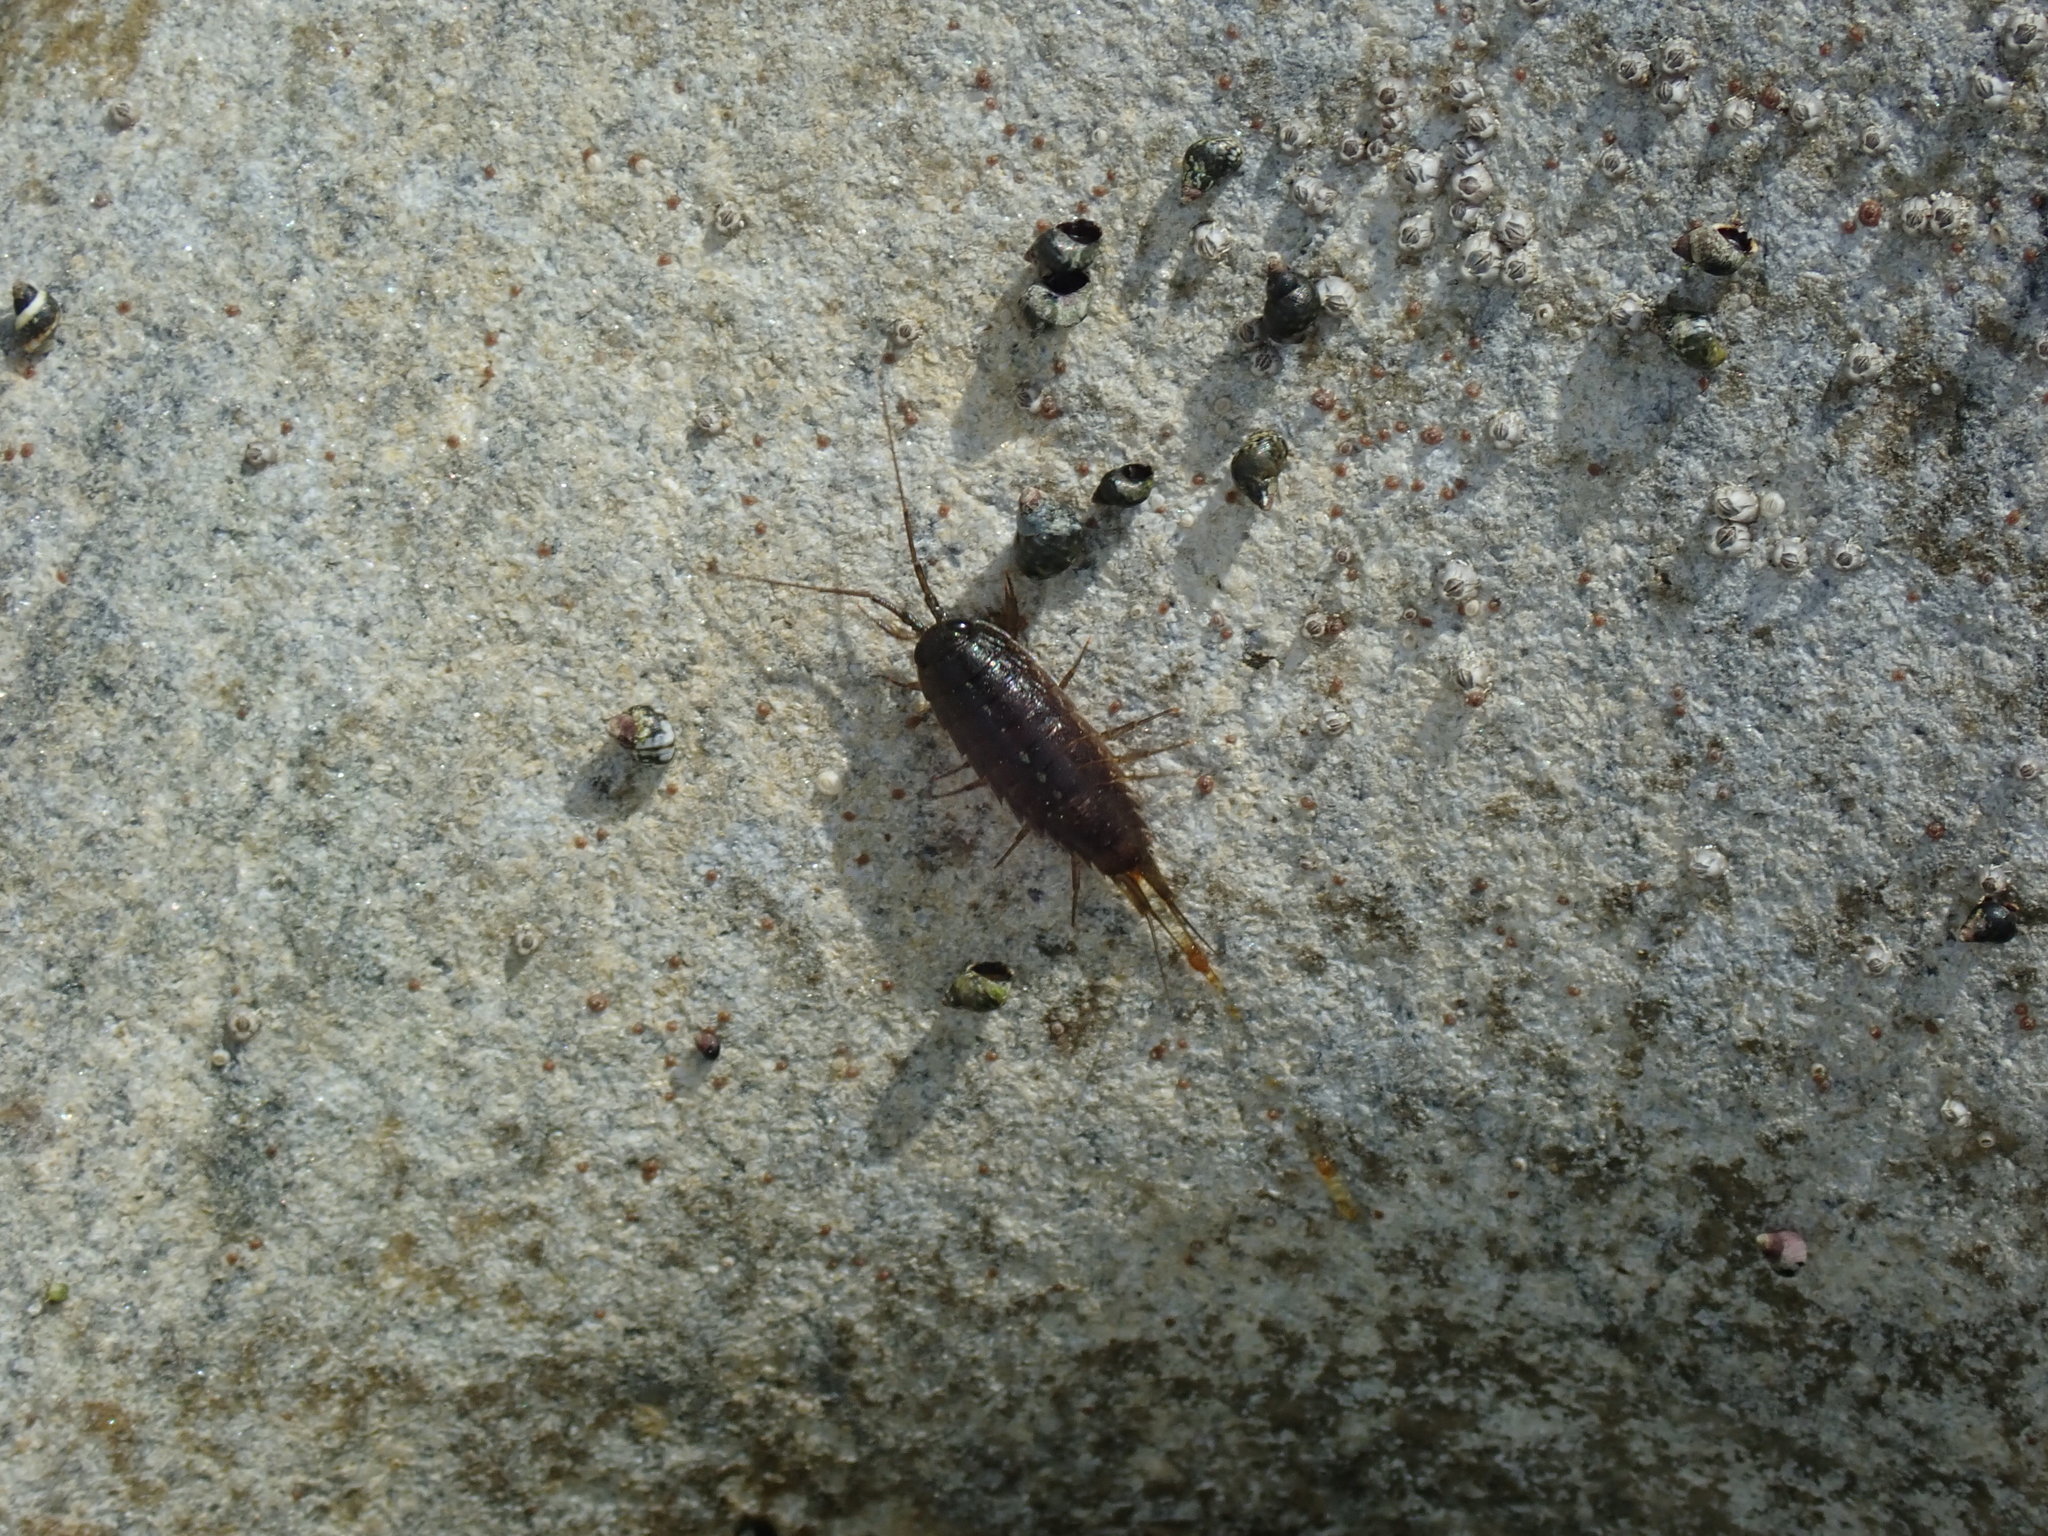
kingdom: Animalia
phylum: Arthropoda
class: Malacostraca
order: Isopoda
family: Ligiidae
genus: Ligia
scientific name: Ligia occidentalis
